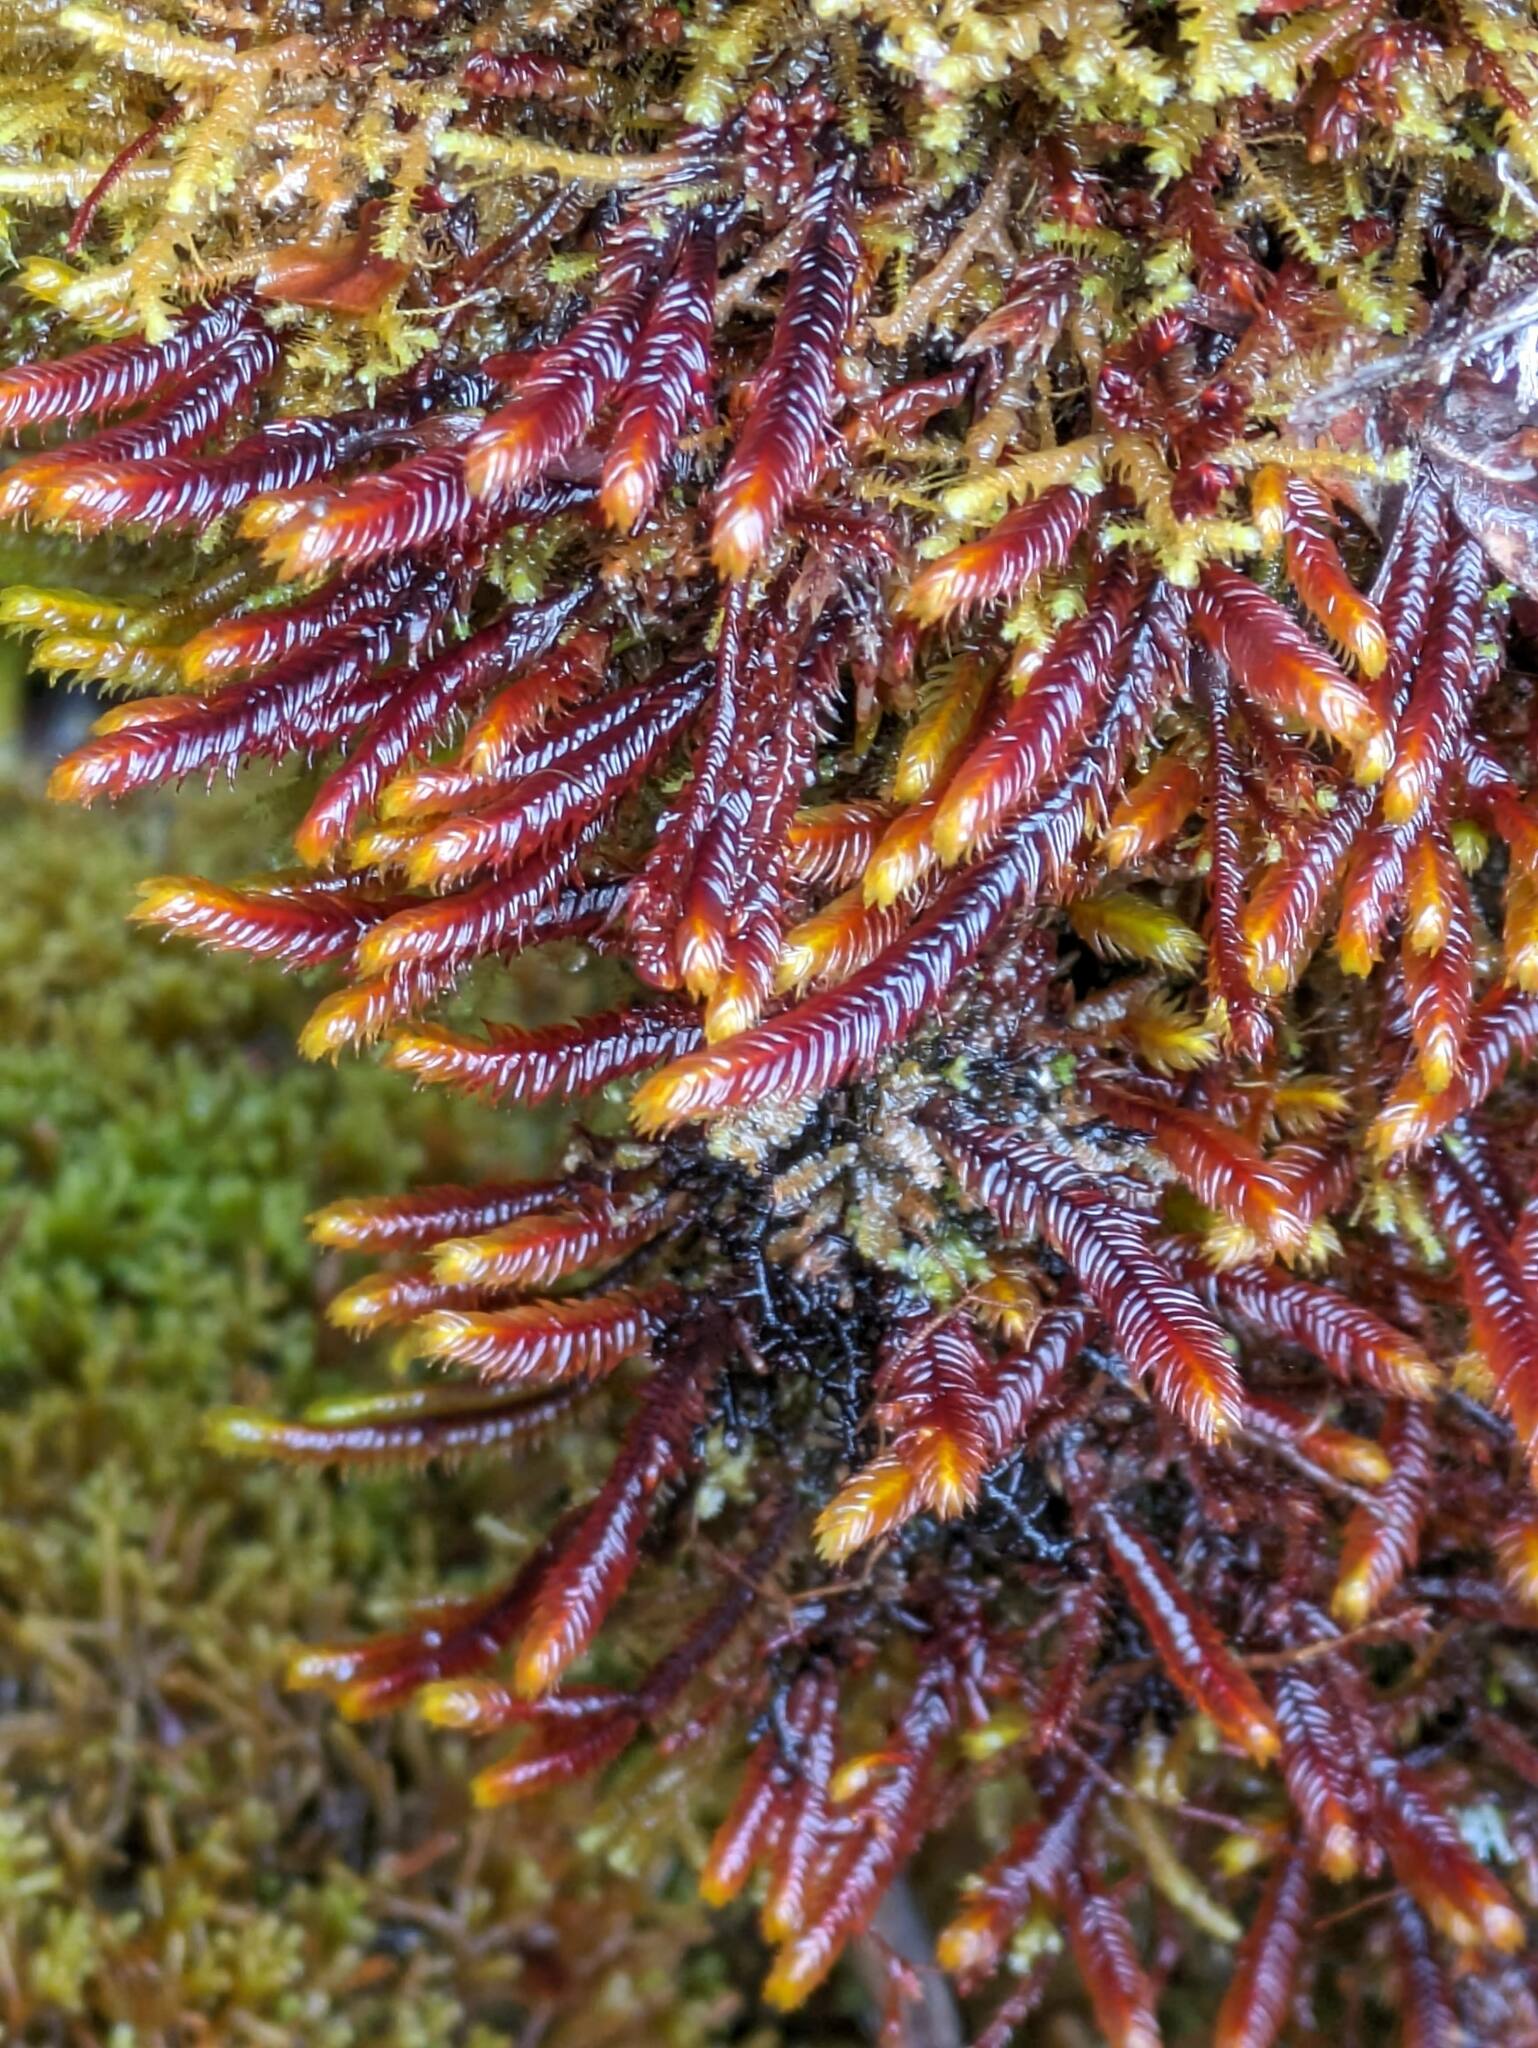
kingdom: Plantae
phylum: Marchantiophyta
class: Jungermanniopsida
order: Pleuroziales
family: Pleuroziaceae
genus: Pleurozia
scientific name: Pleurozia subinflata
